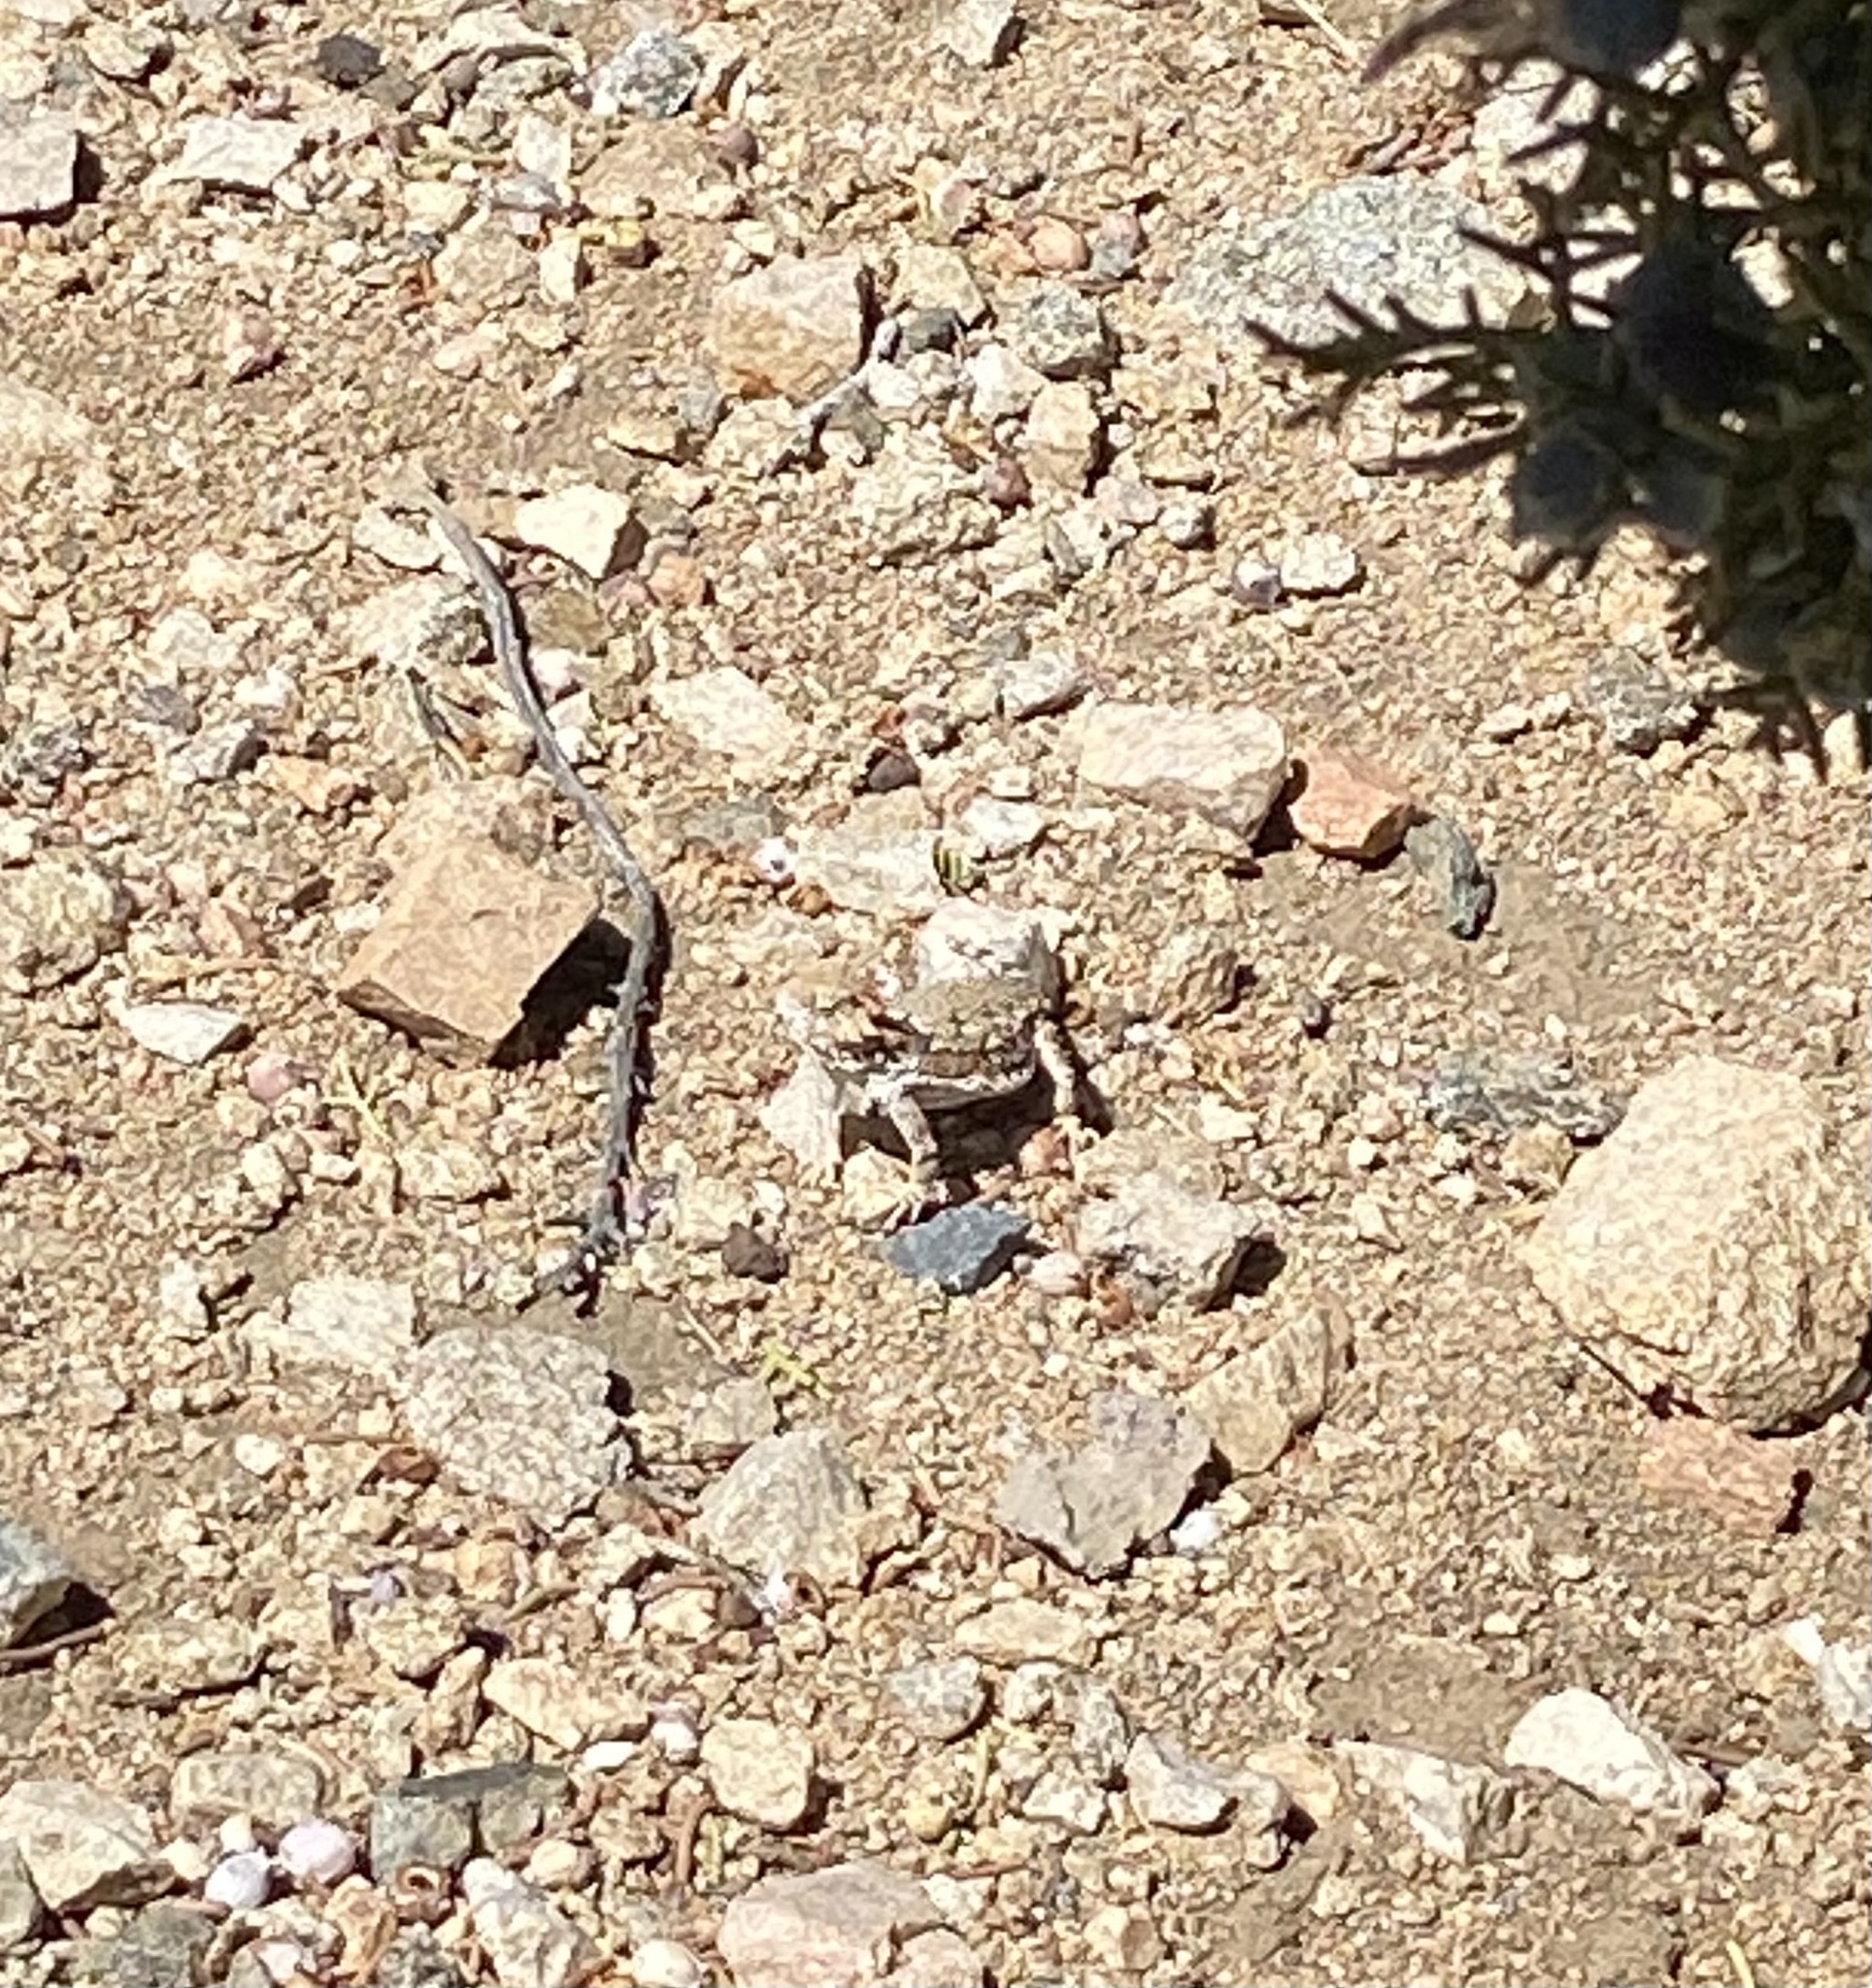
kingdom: Animalia
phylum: Chordata
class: Squamata
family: Phrynosomatidae
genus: Phrynosoma
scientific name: Phrynosoma blainvillii
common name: San diego horned lizard
